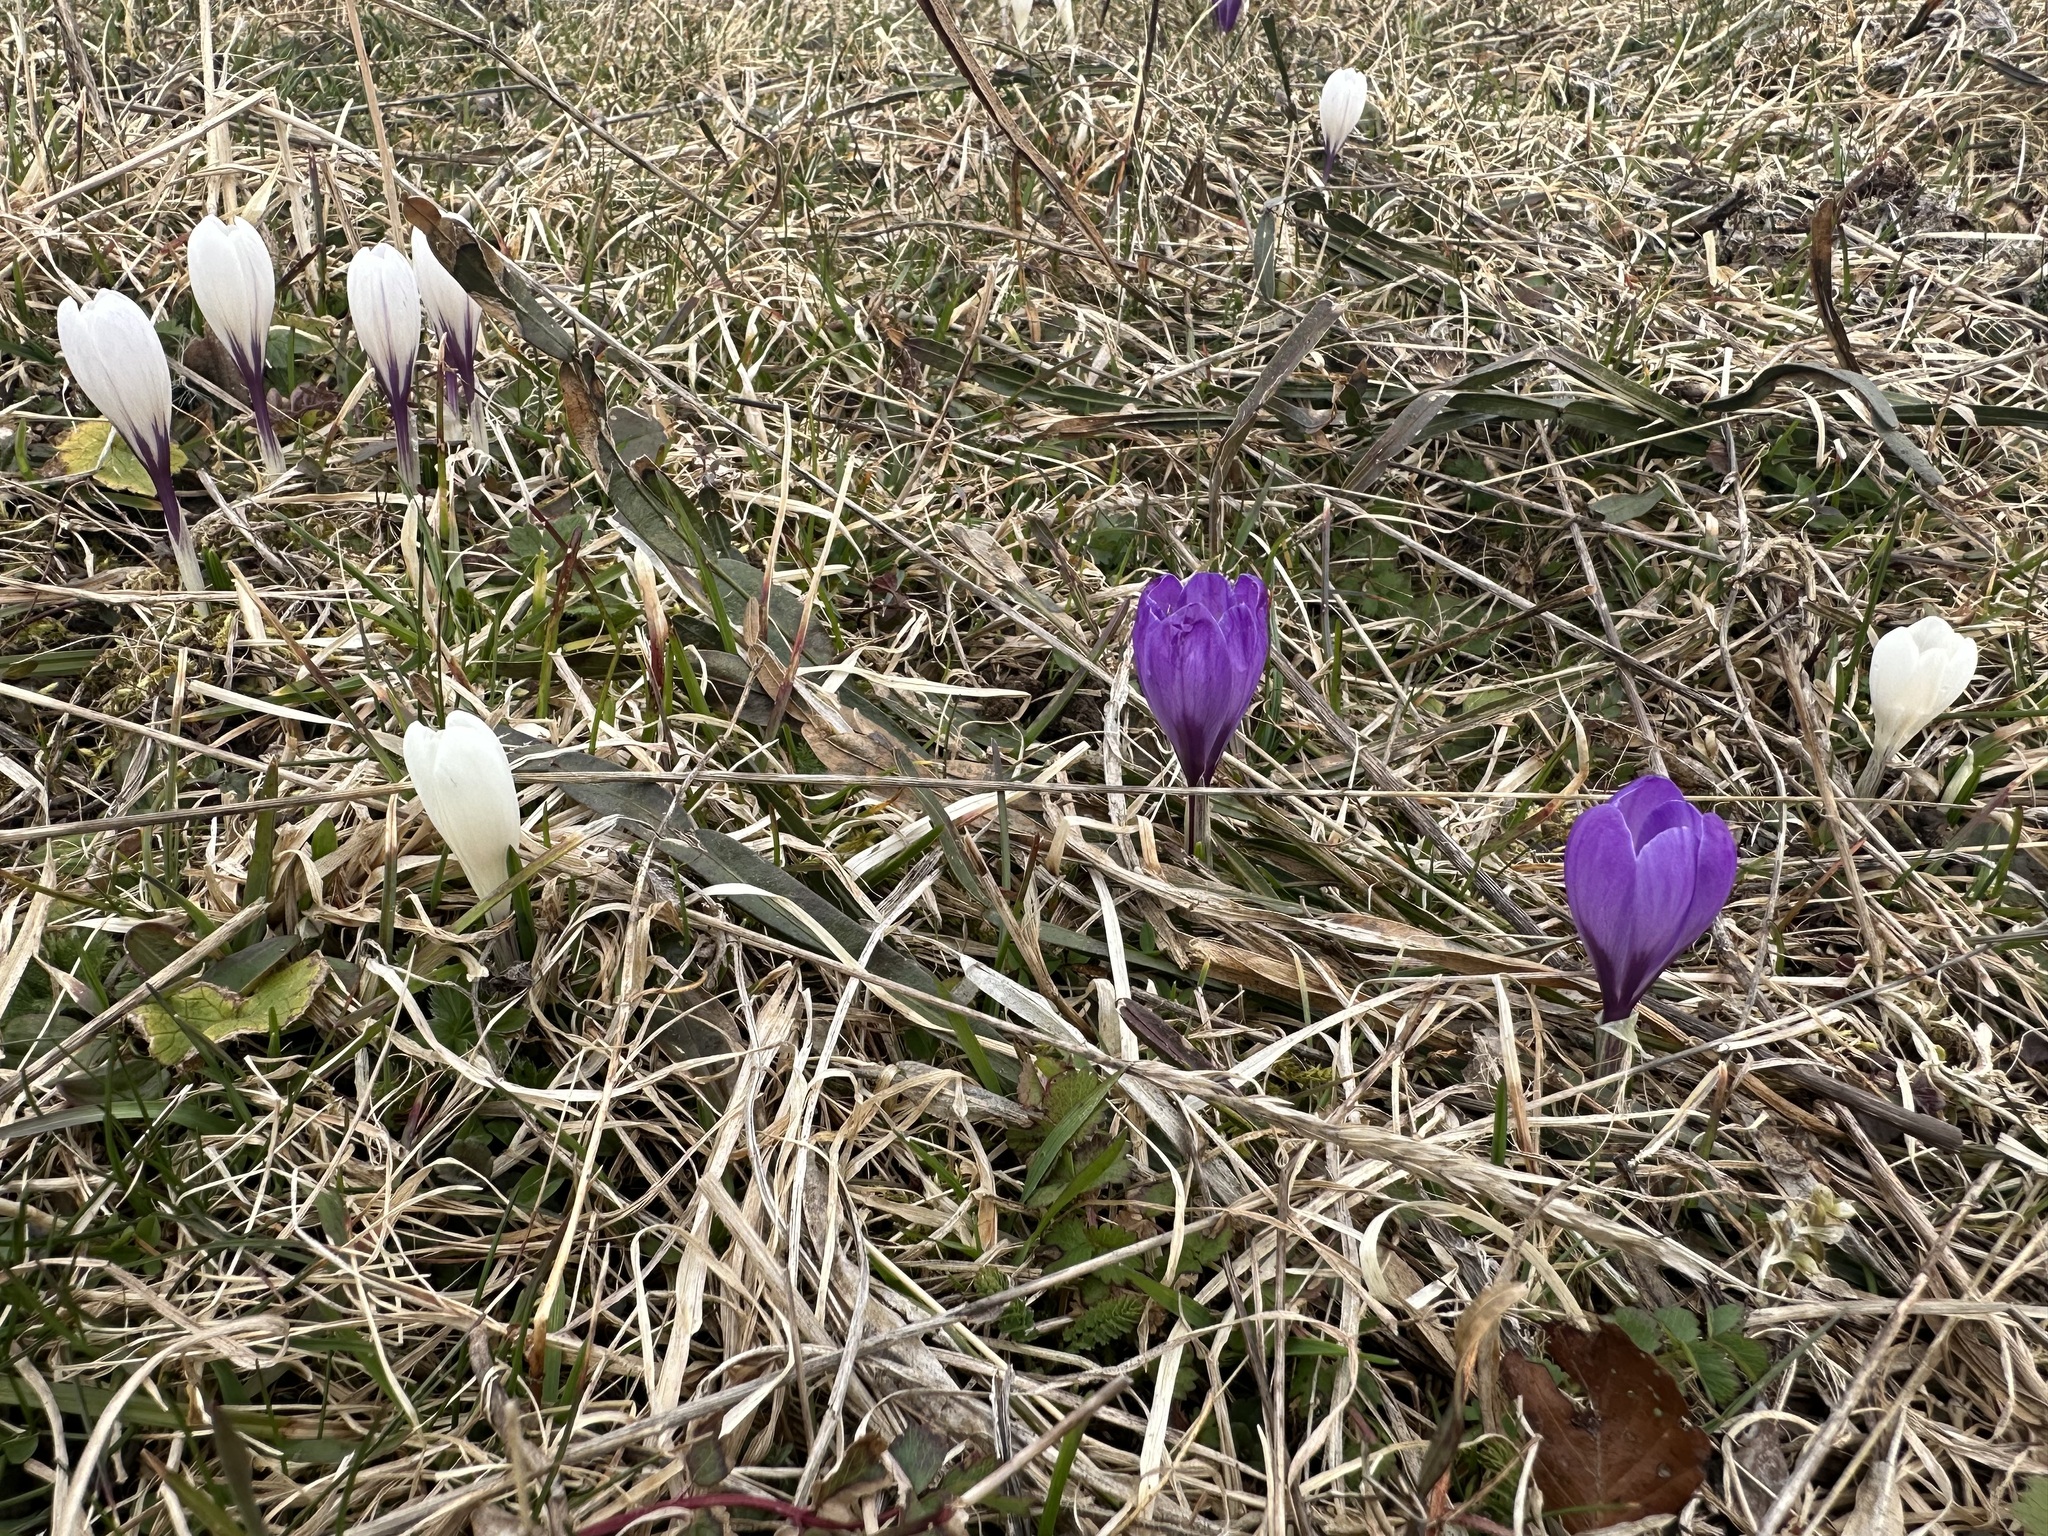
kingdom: Plantae
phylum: Tracheophyta
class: Liliopsida
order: Asparagales
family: Iridaceae
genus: Crocus
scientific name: Crocus vernus
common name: Spring crocus
